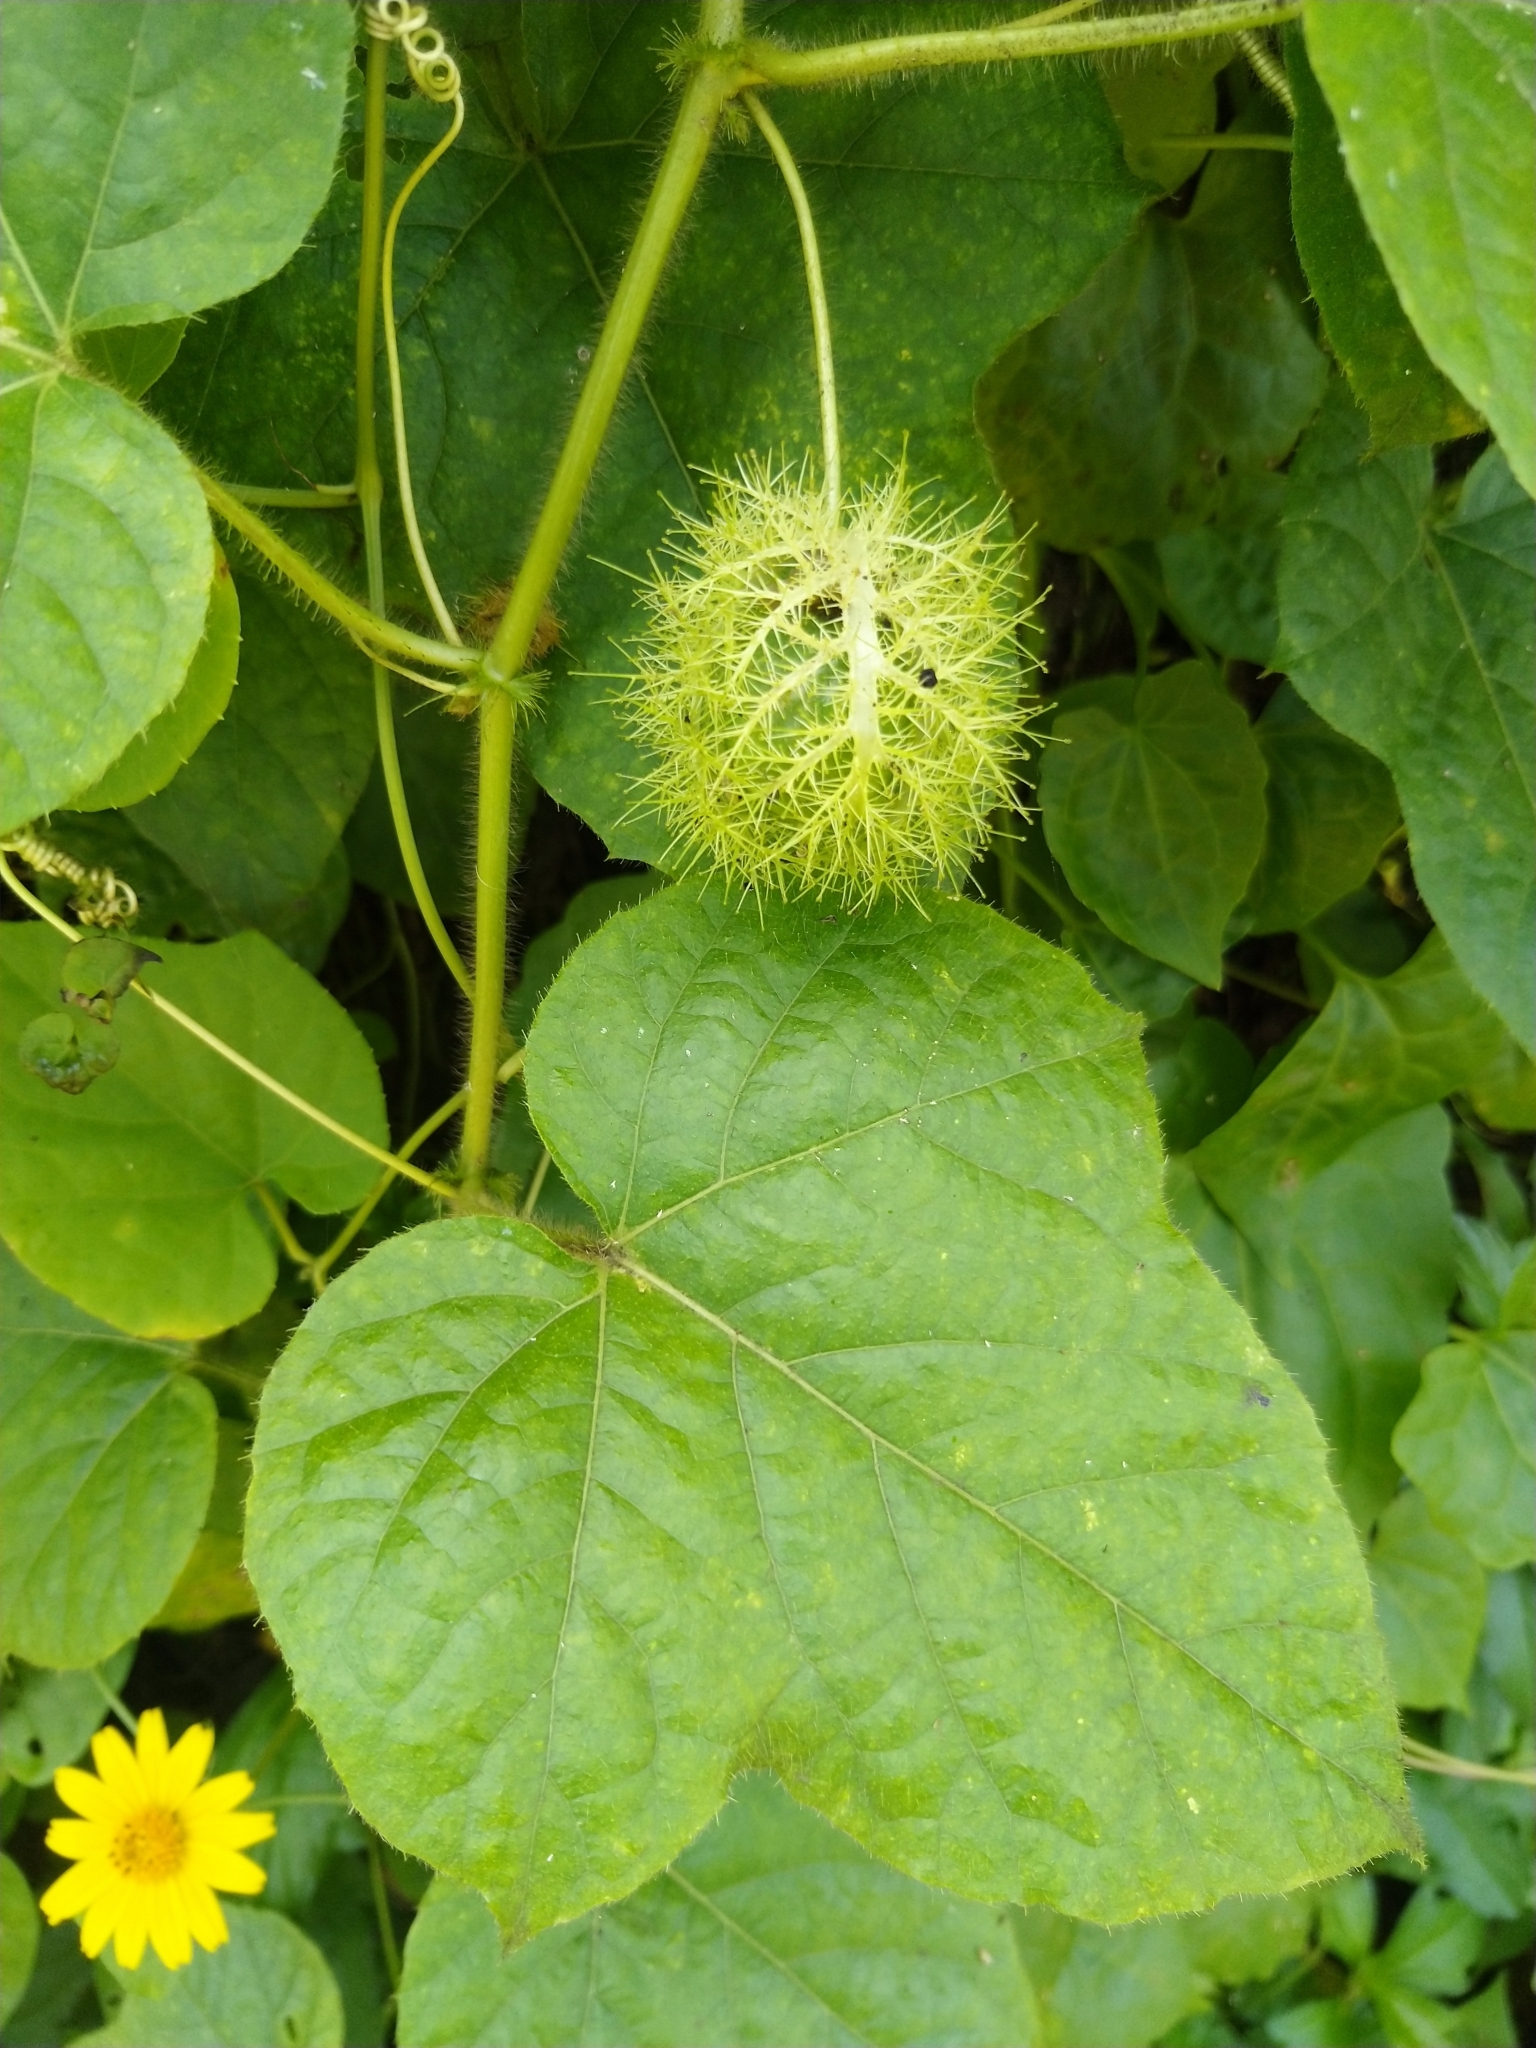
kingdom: Plantae
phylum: Tracheophyta
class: Magnoliopsida
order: Malpighiales
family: Passifloraceae
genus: Passiflora
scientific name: Passiflora foetida
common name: Fetid passionflower
